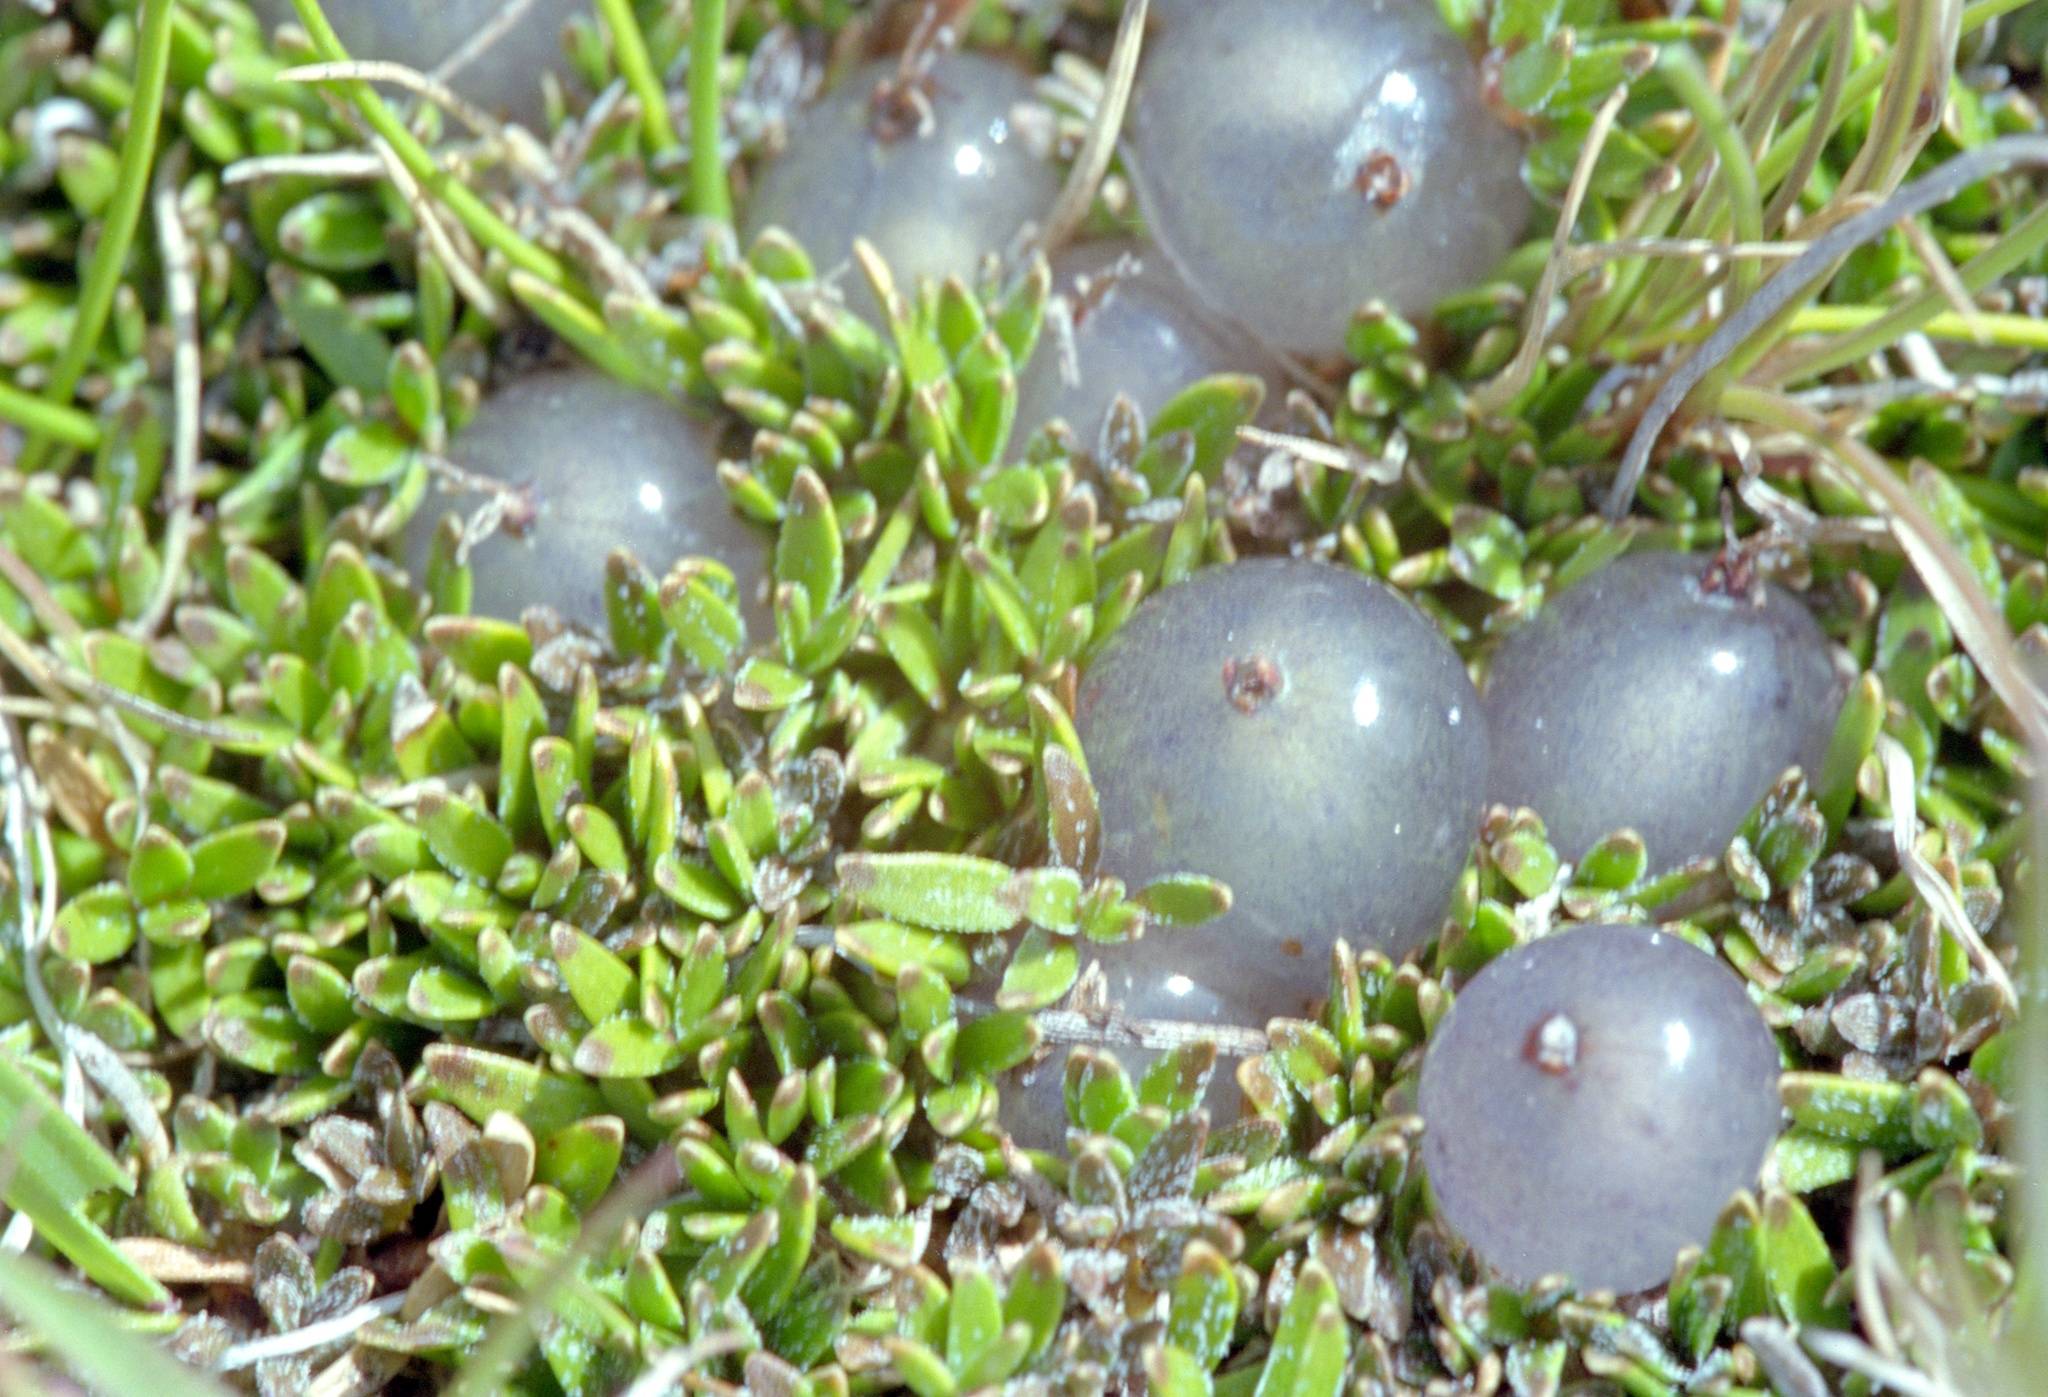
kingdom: Plantae
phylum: Tracheophyta
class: Magnoliopsida
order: Gentianales
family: Rubiaceae
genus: Coprosma
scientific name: Coprosma petriei
